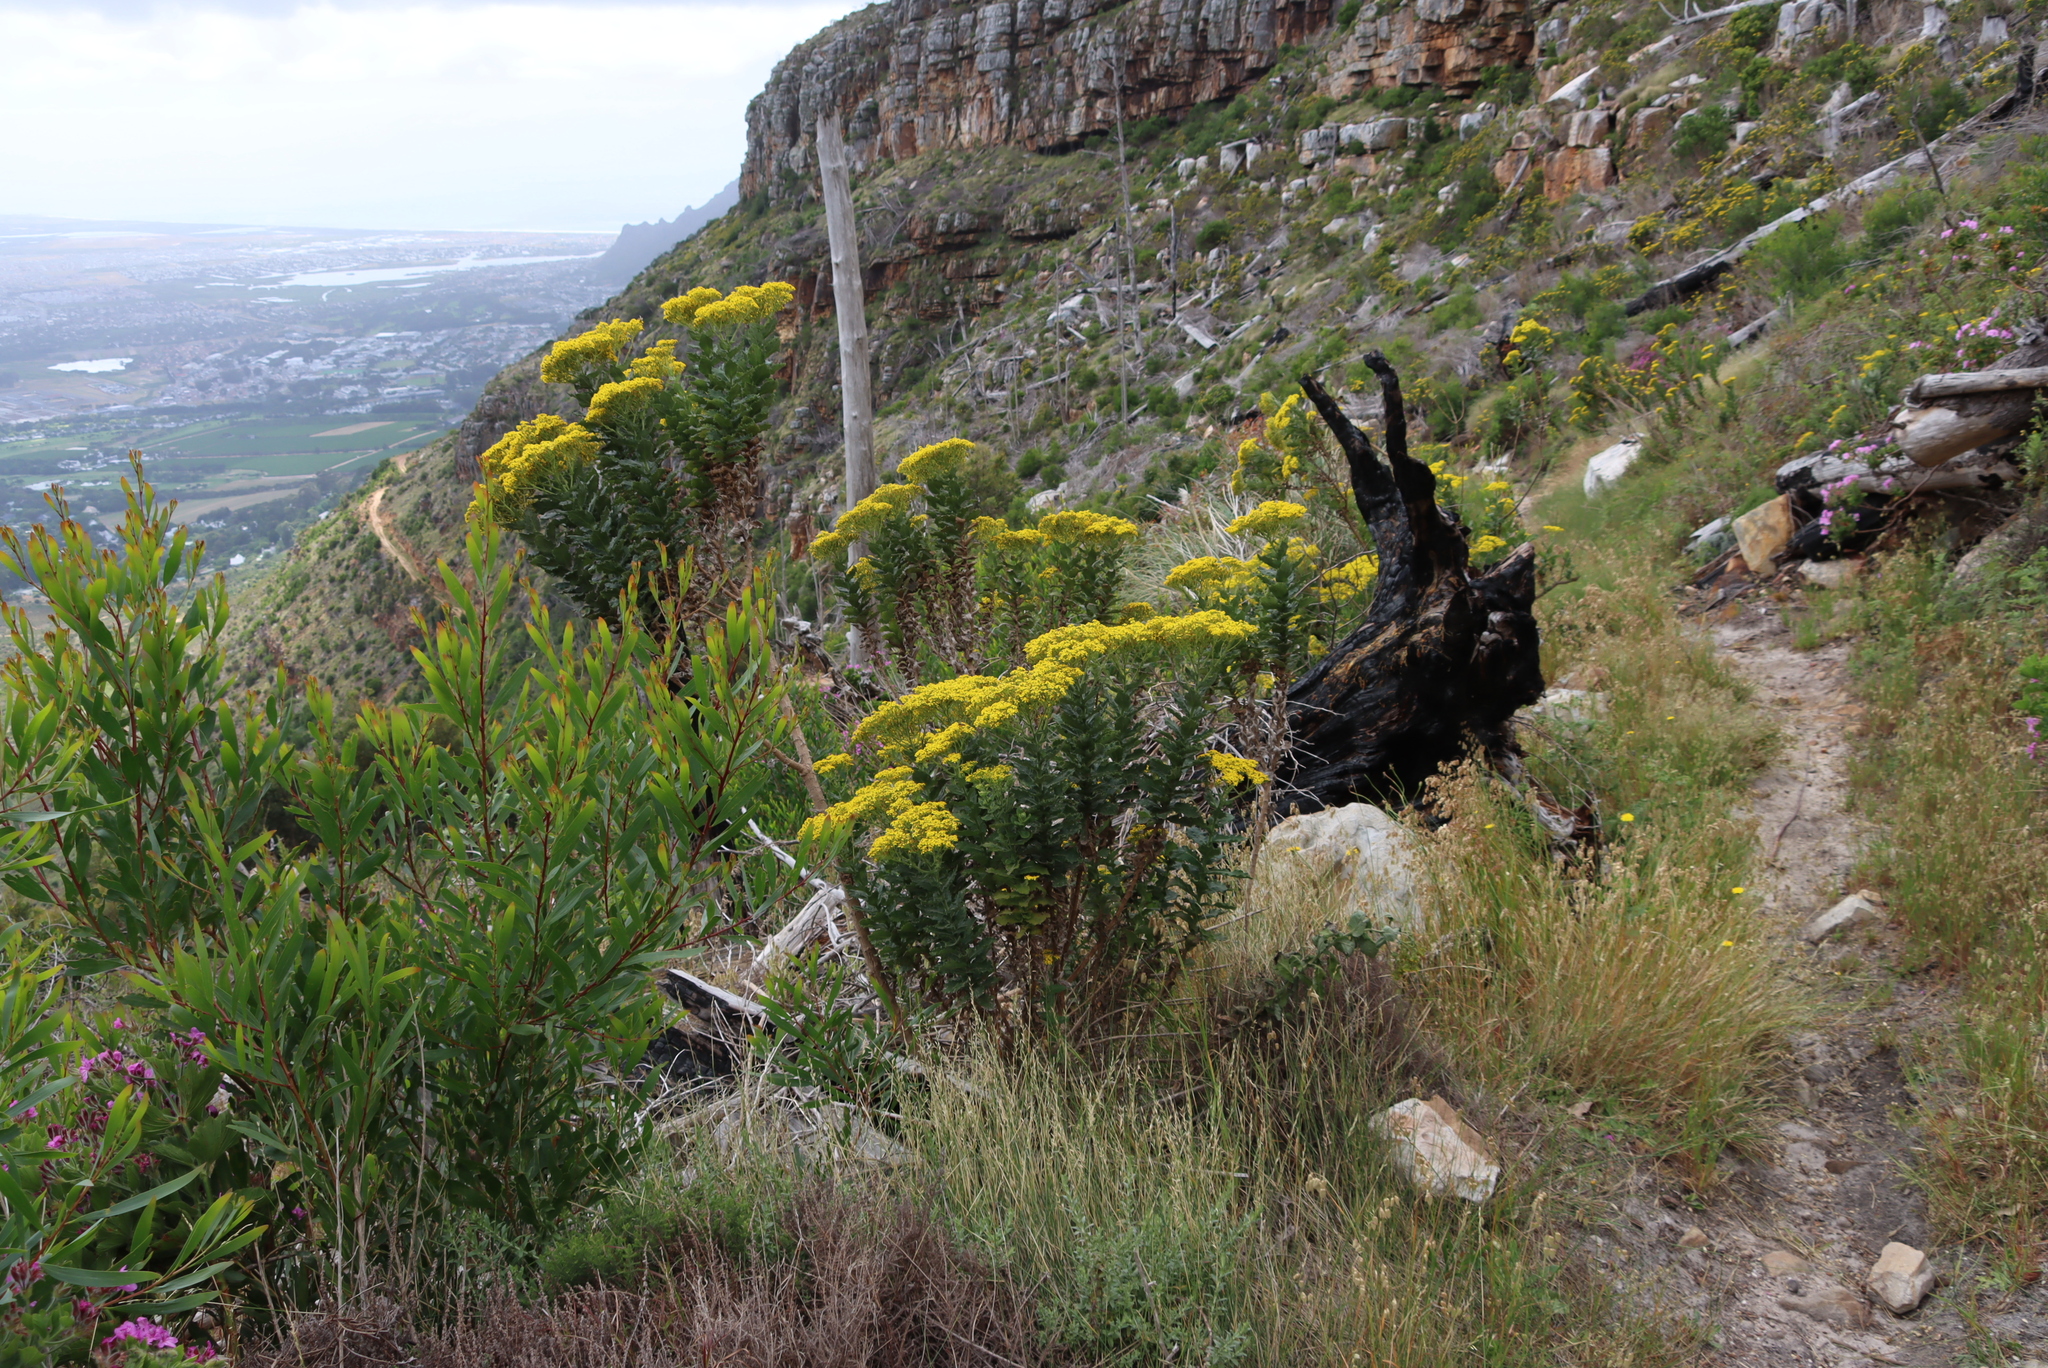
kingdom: Plantae
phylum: Tracheophyta
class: Magnoliopsida
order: Asterales
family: Asteraceae
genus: Senecio
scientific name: Senecio rigidus
